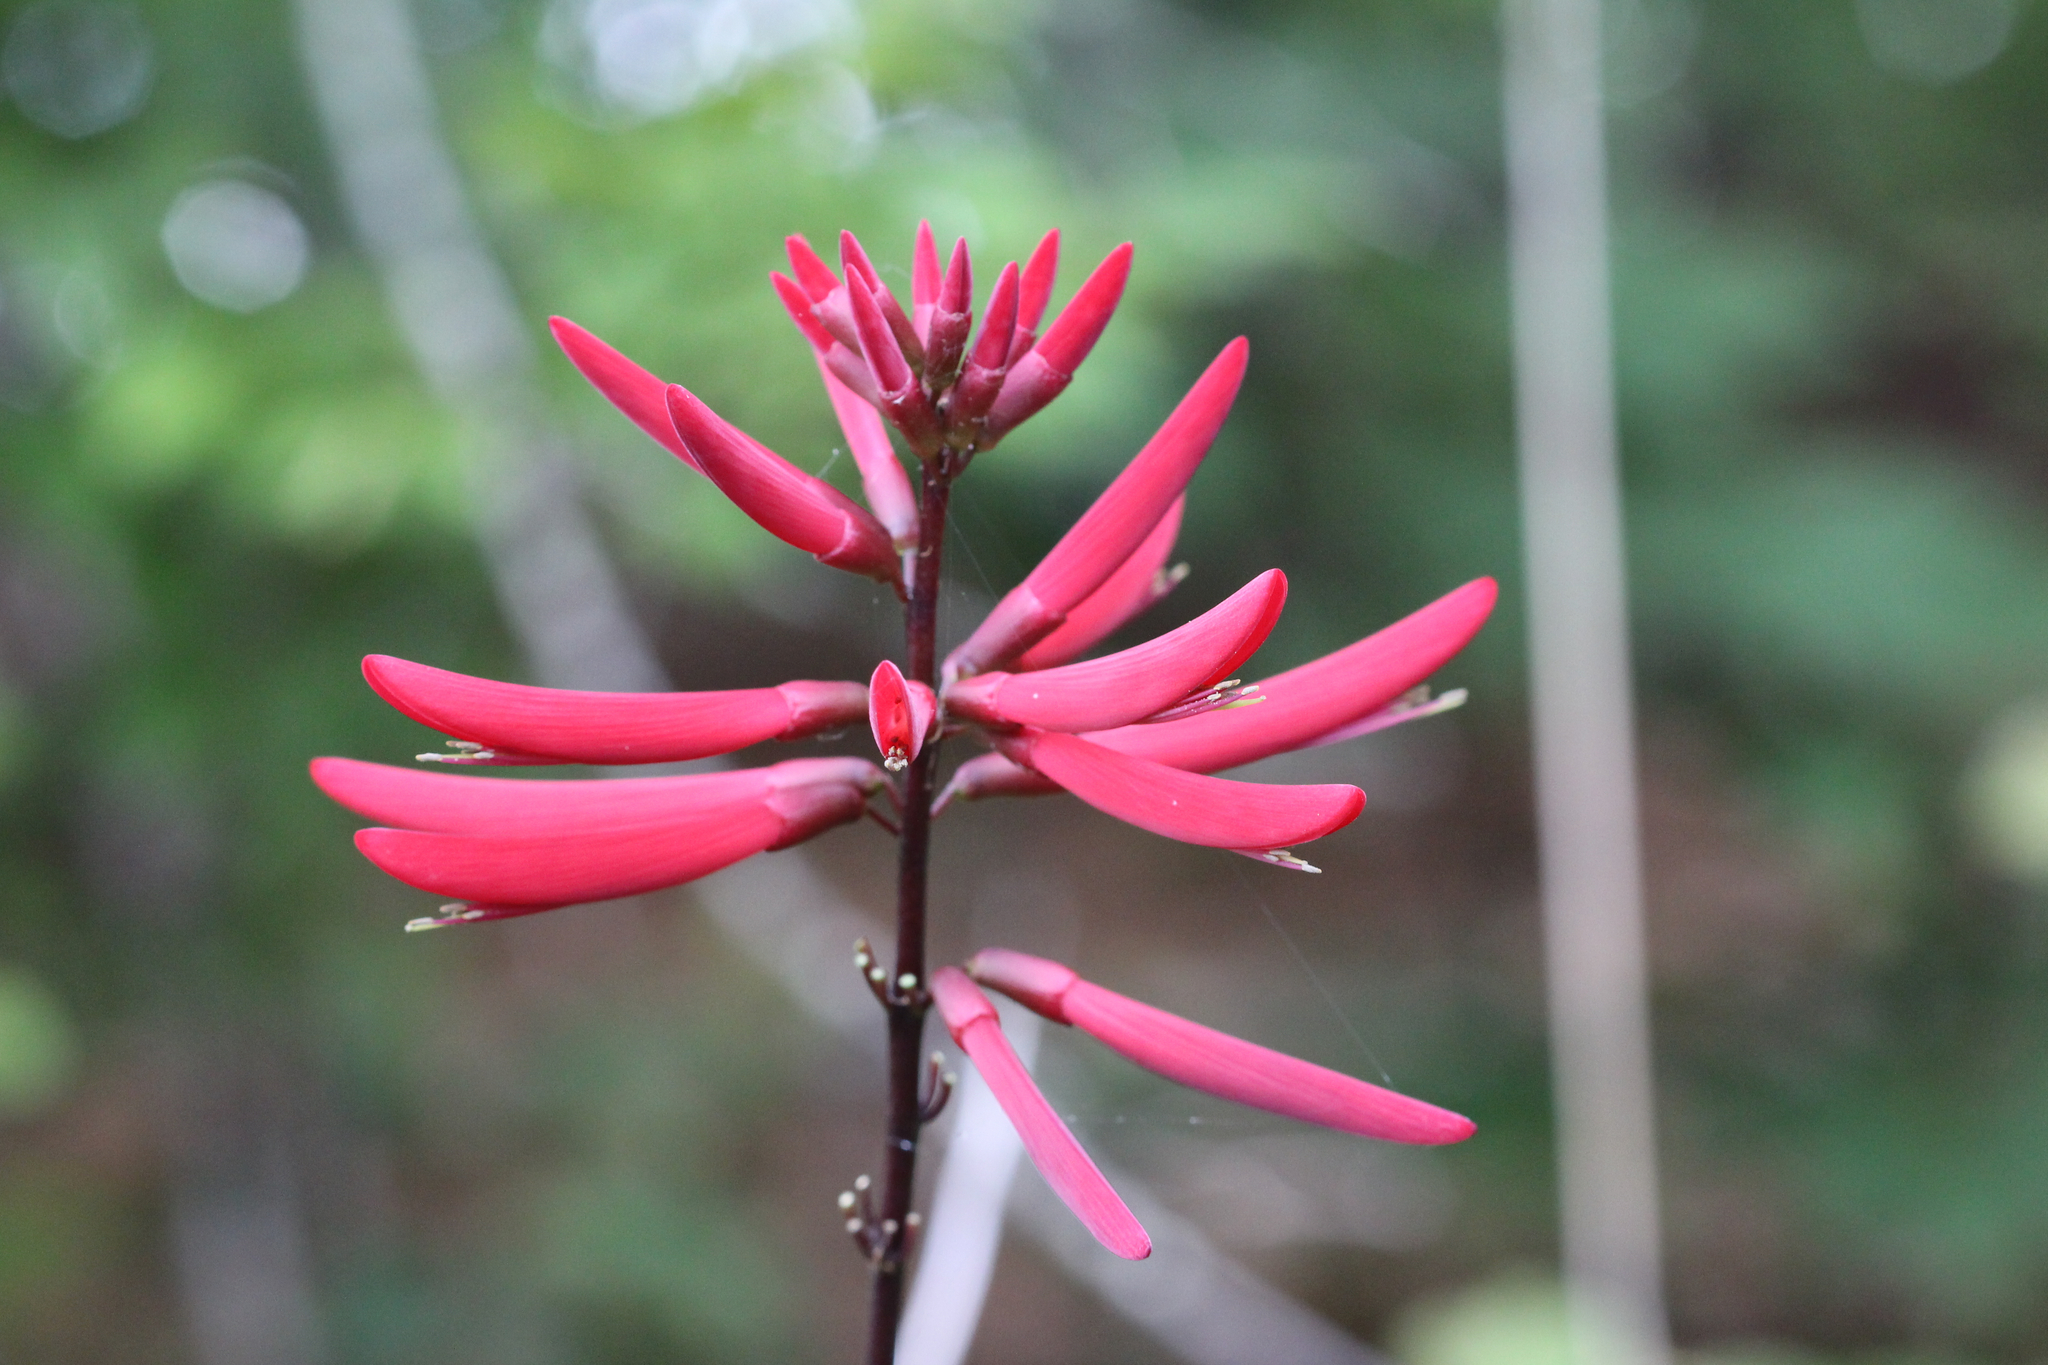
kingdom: Plantae
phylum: Tracheophyta
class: Magnoliopsida
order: Fabales
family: Fabaceae
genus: Erythrina
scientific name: Erythrina herbacea
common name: Coral-bean
